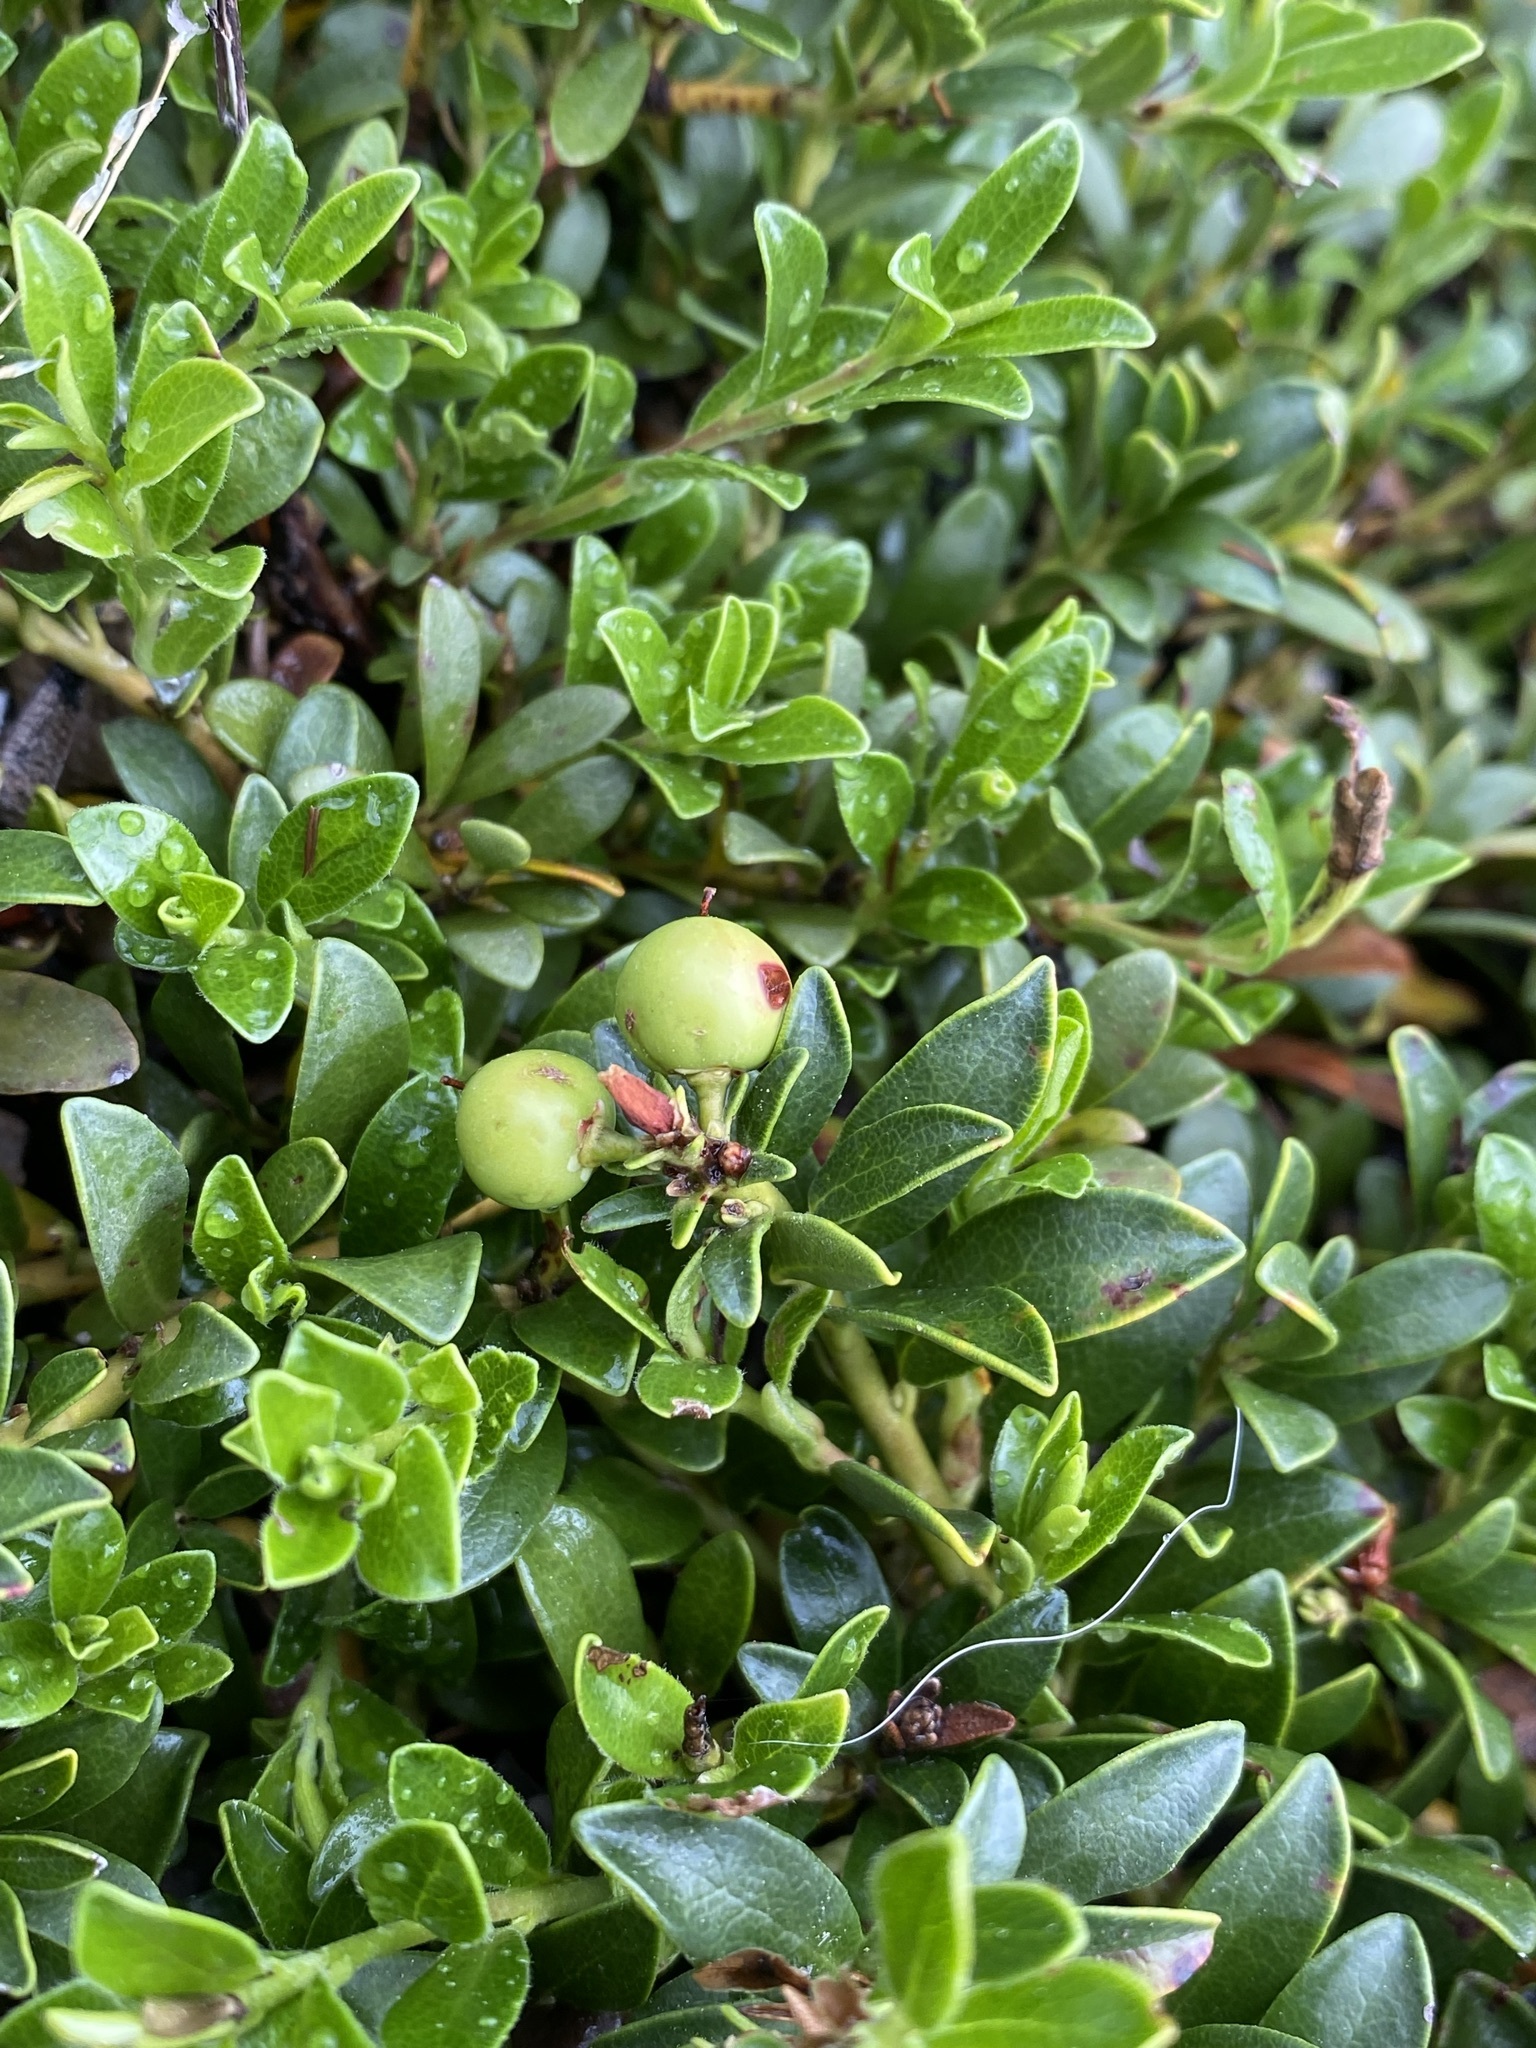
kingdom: Plantae
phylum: Tracheophyta
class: Magnoliopsida
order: Ericales
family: Ericaceae
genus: Arctostaphylos
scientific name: Arctostaphylos uva-ursi
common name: Bearberry
